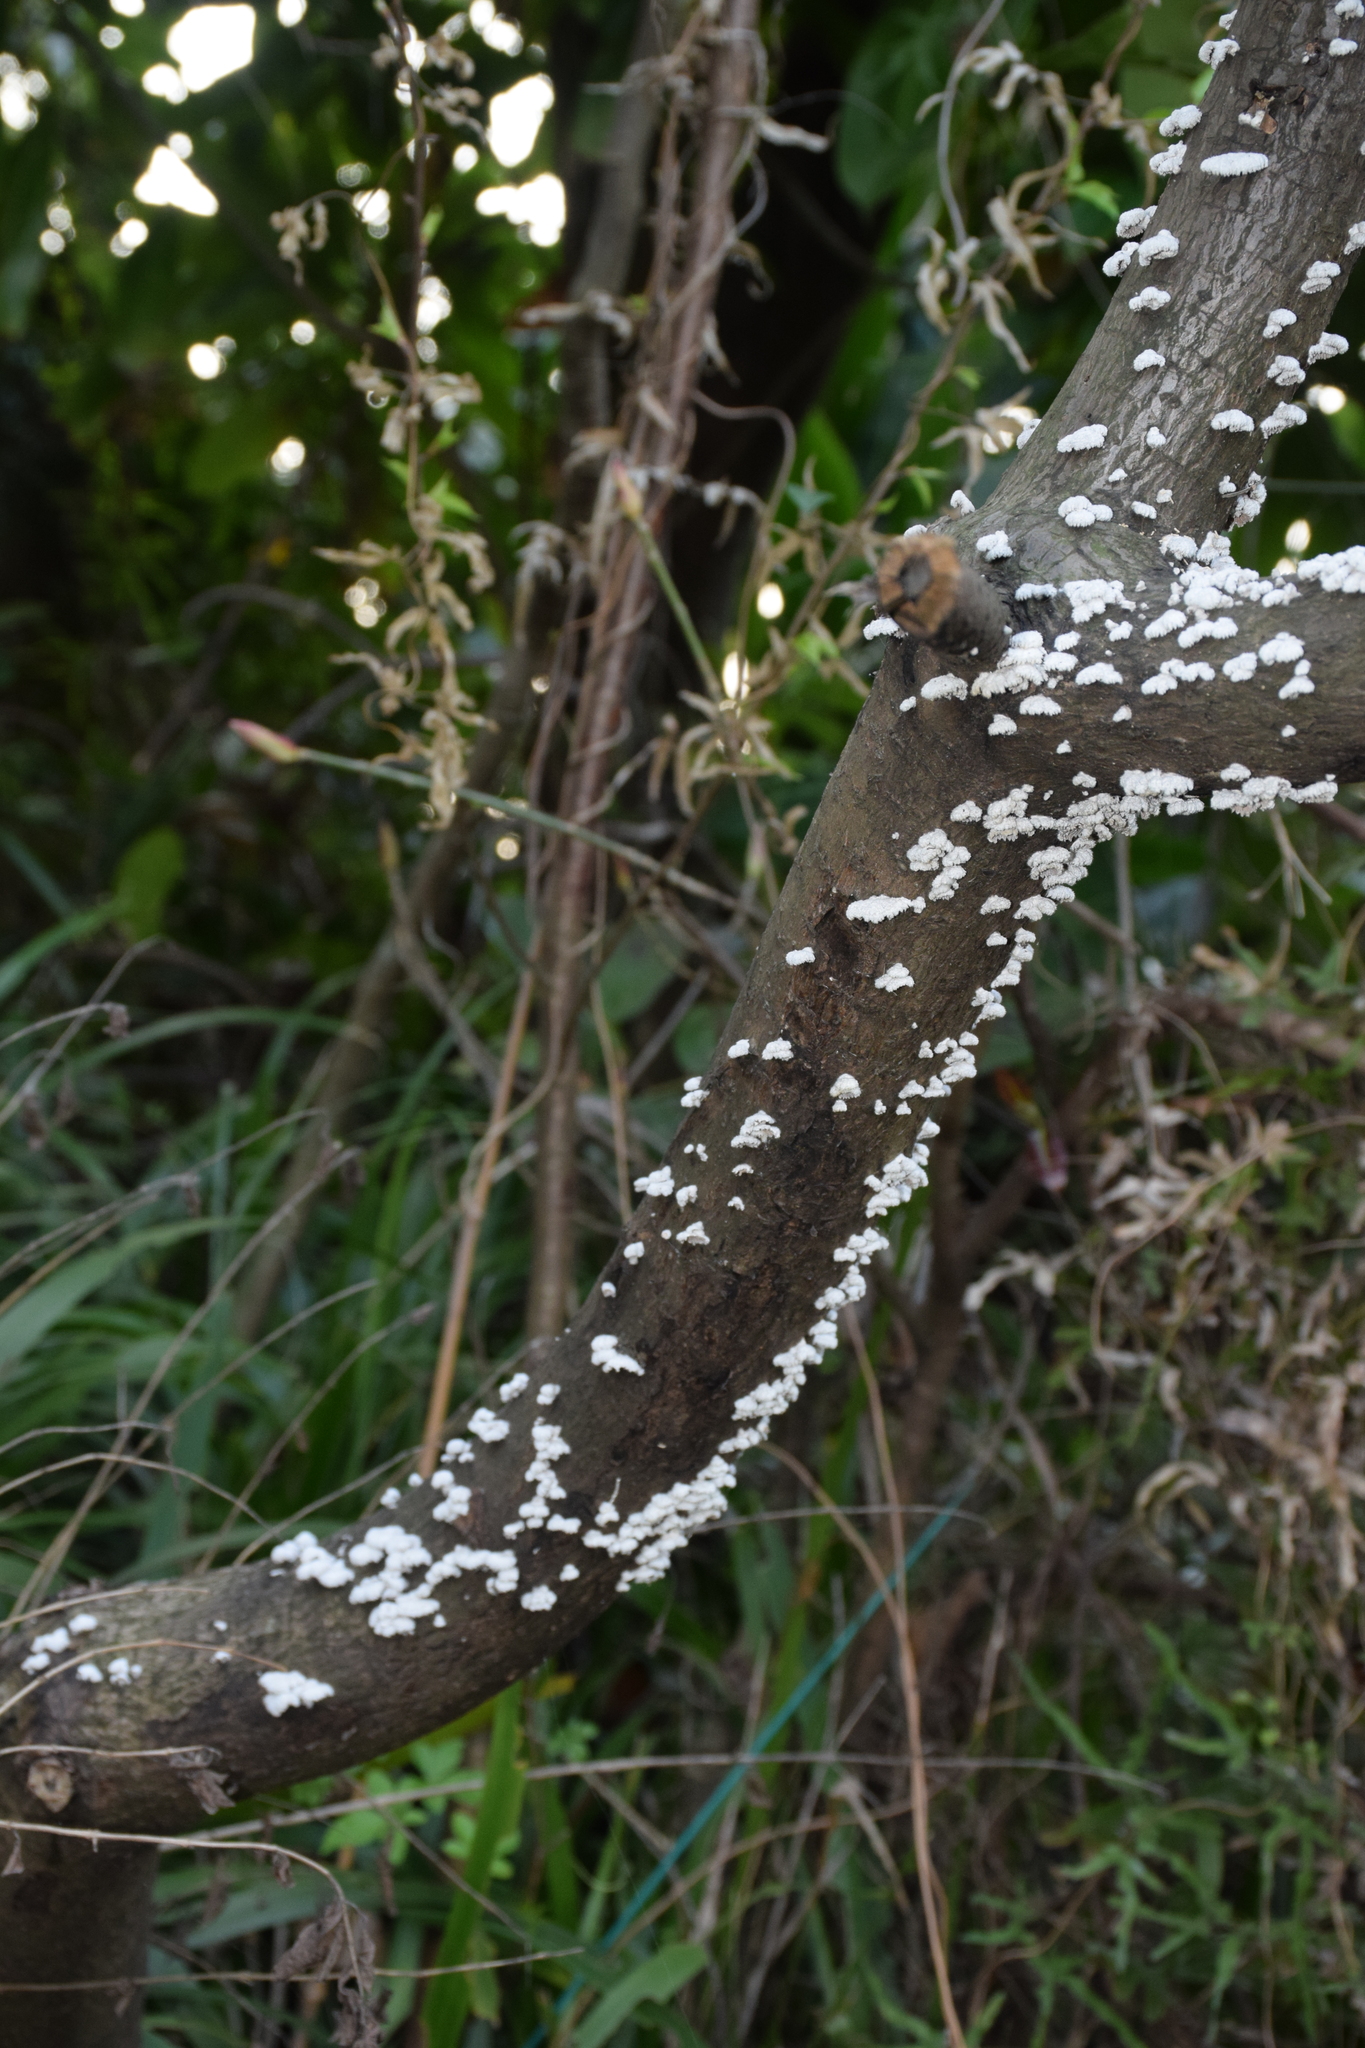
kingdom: Fungi
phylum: Basidiomycota
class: Agaricomycetes
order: Agaricales
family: Schizophyllaceae
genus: Schizophyllum
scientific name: Schizophyllum commune
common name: Common porecrust
